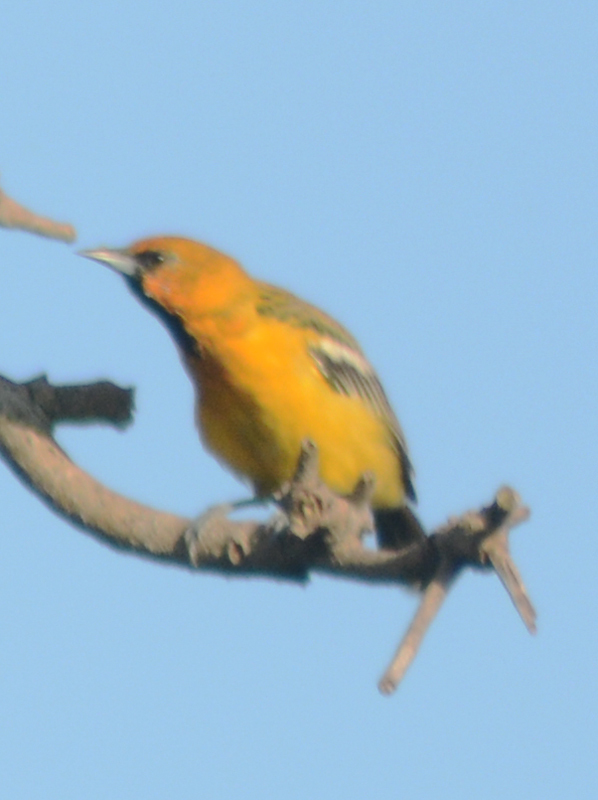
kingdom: Animalia
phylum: Chordata
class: Aves
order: Passeriformes
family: Icteridae
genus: Icterus
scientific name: Icterus pustulatus
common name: Streak-backed oriole
